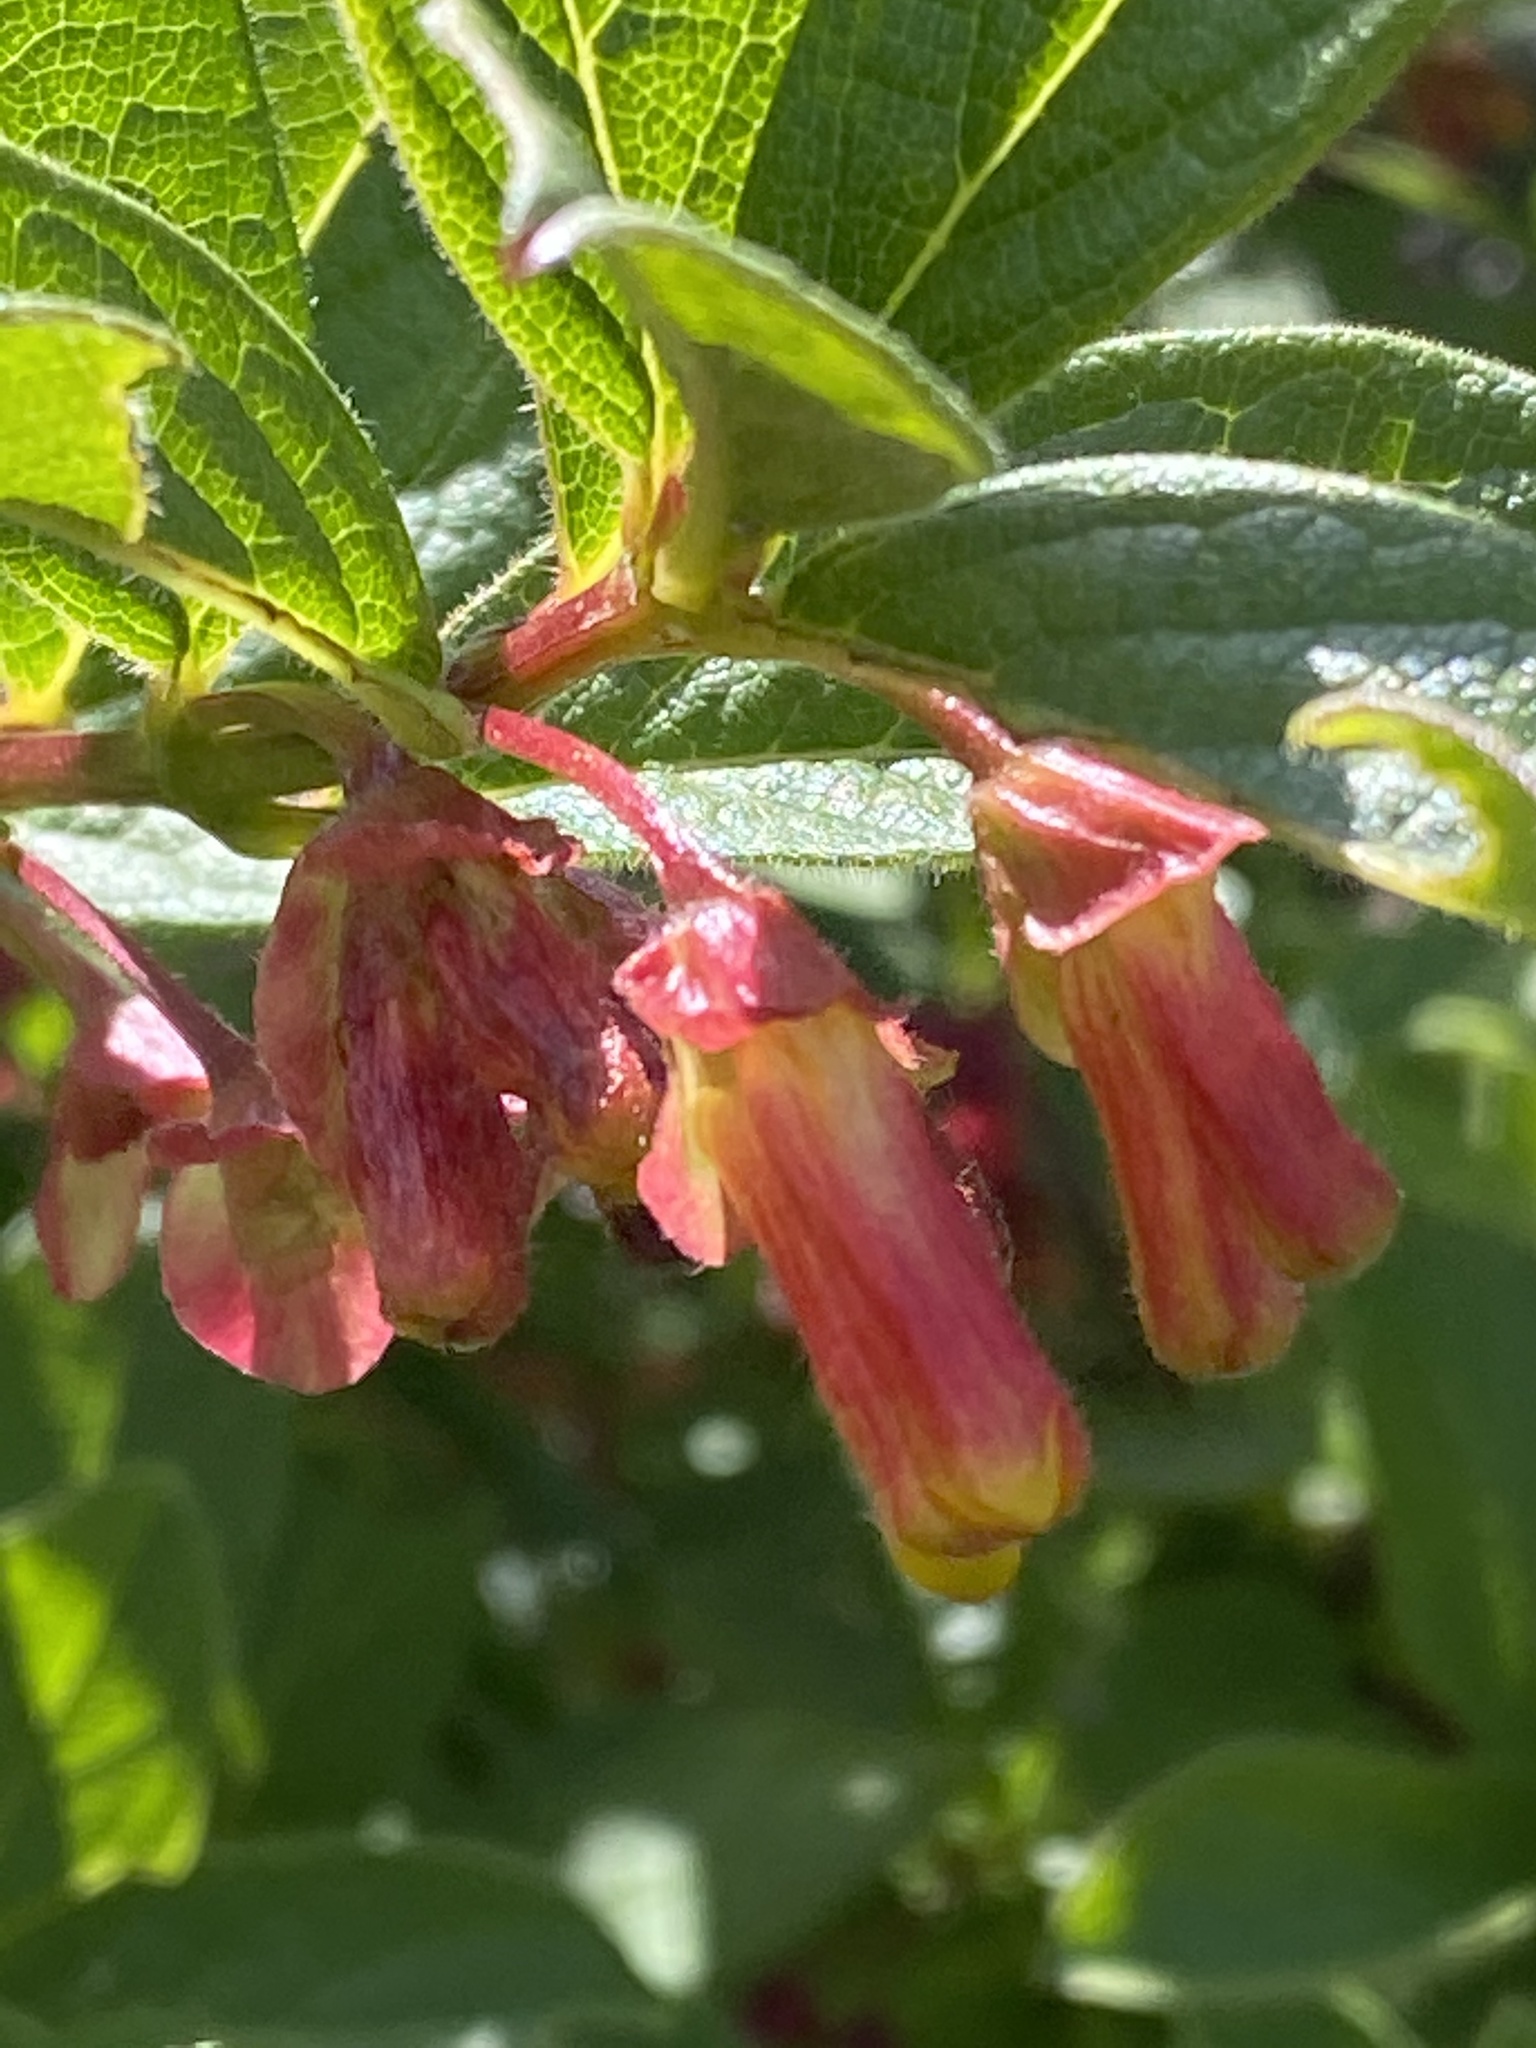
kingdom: Plantae
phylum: Tracheophyta
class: Magnoliopsida
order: Dipsacales
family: Caprifoliaceae
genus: Lonicera
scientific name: Lonicera involucrata
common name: Californian honeysuckle
